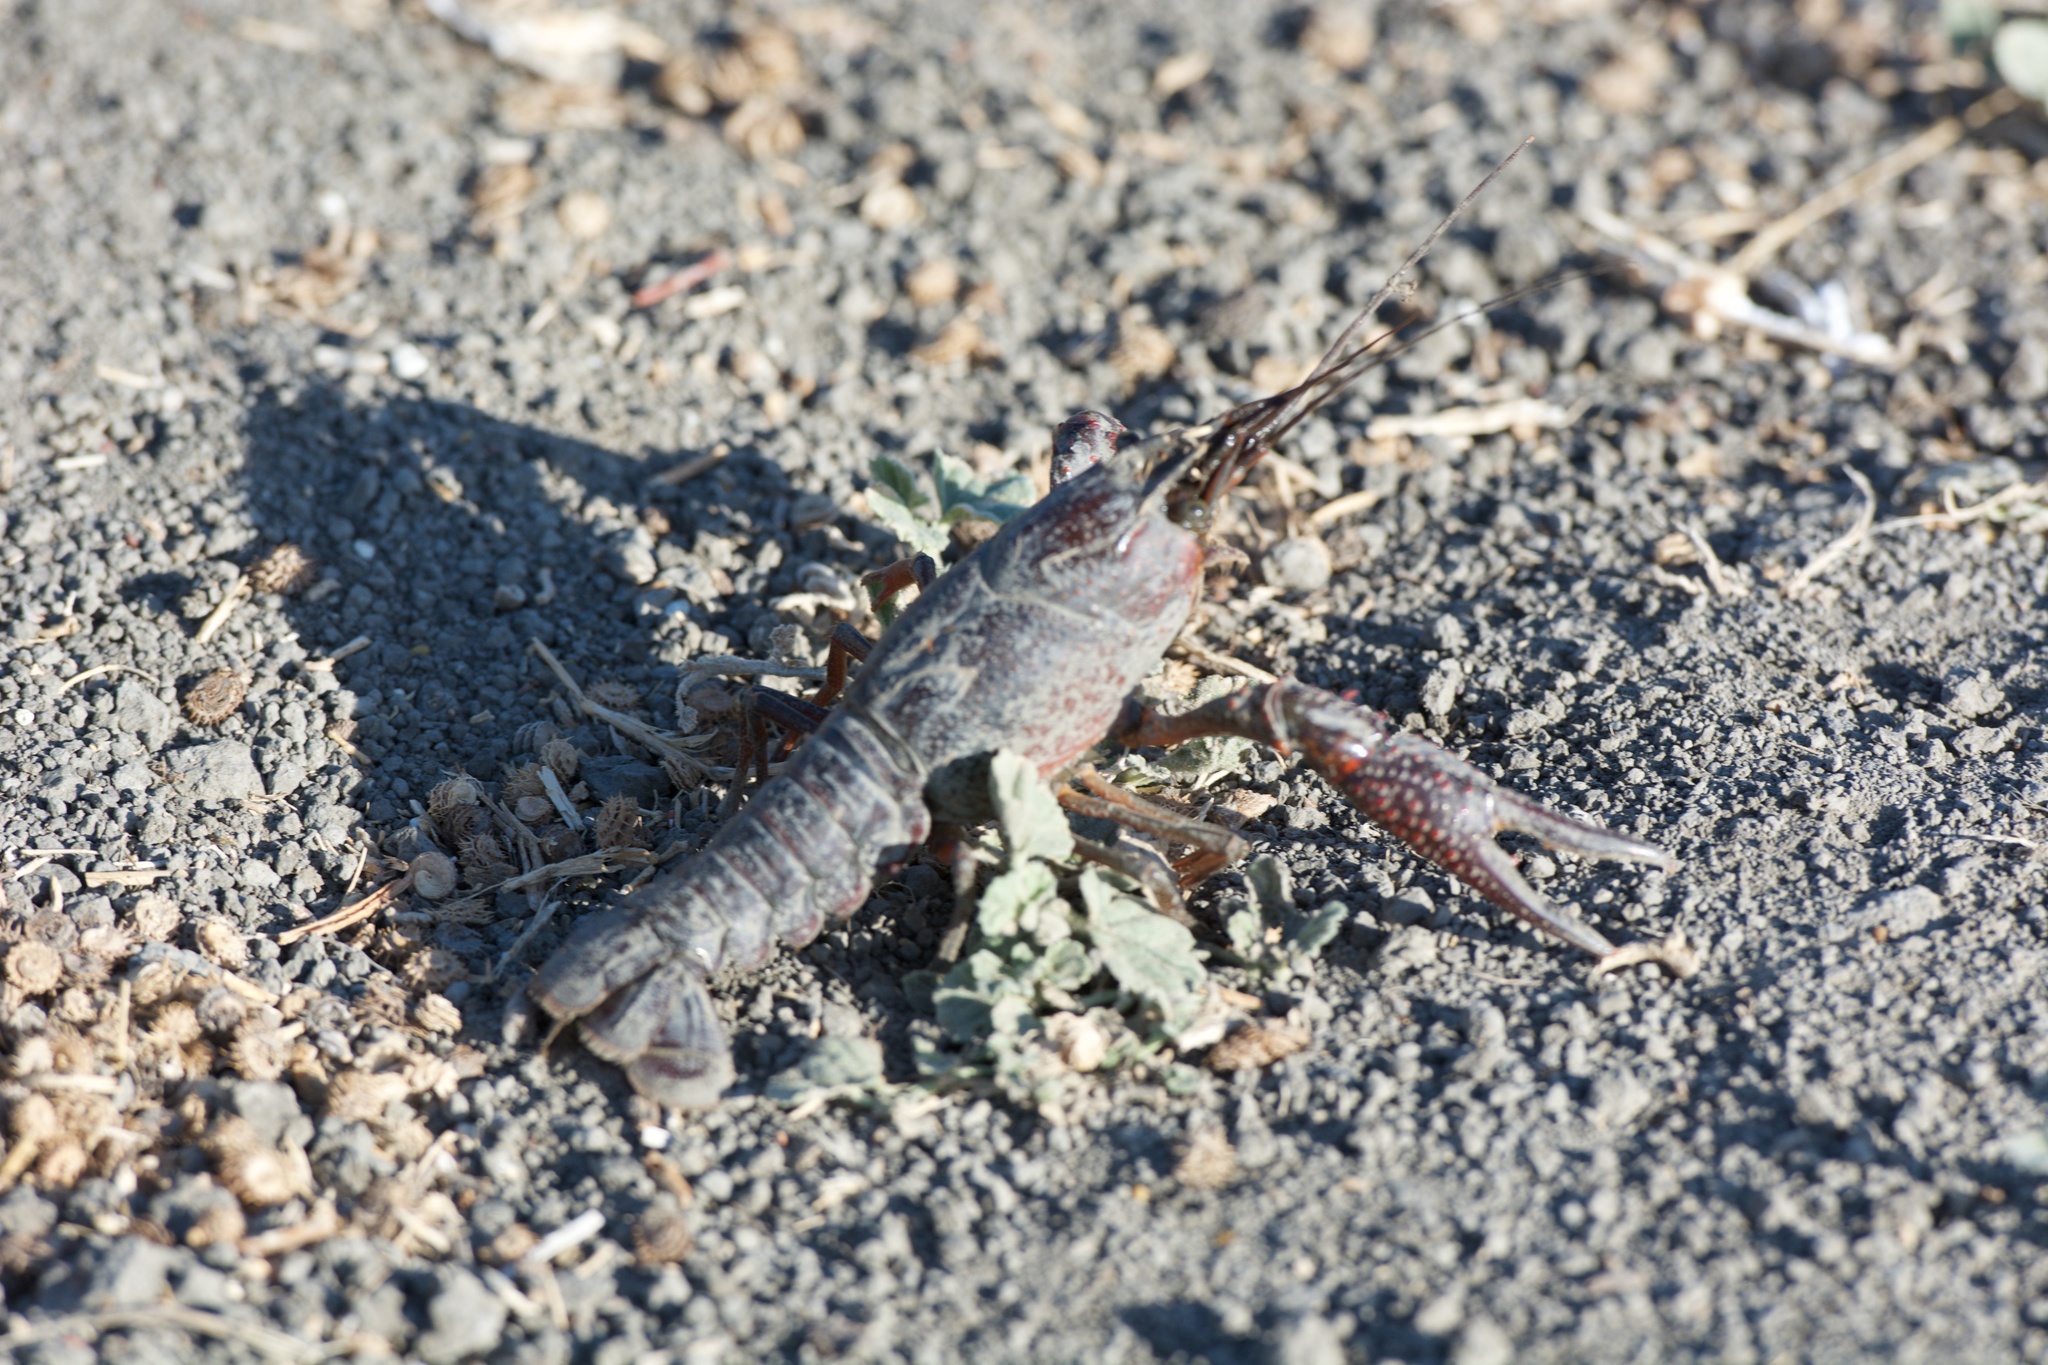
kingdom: Animalia
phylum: Arthropoda
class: Malacostraca
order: Decapoda
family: Cambaridae
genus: Procambarus
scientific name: Procambarus clarkii
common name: Red swamp crayfish
